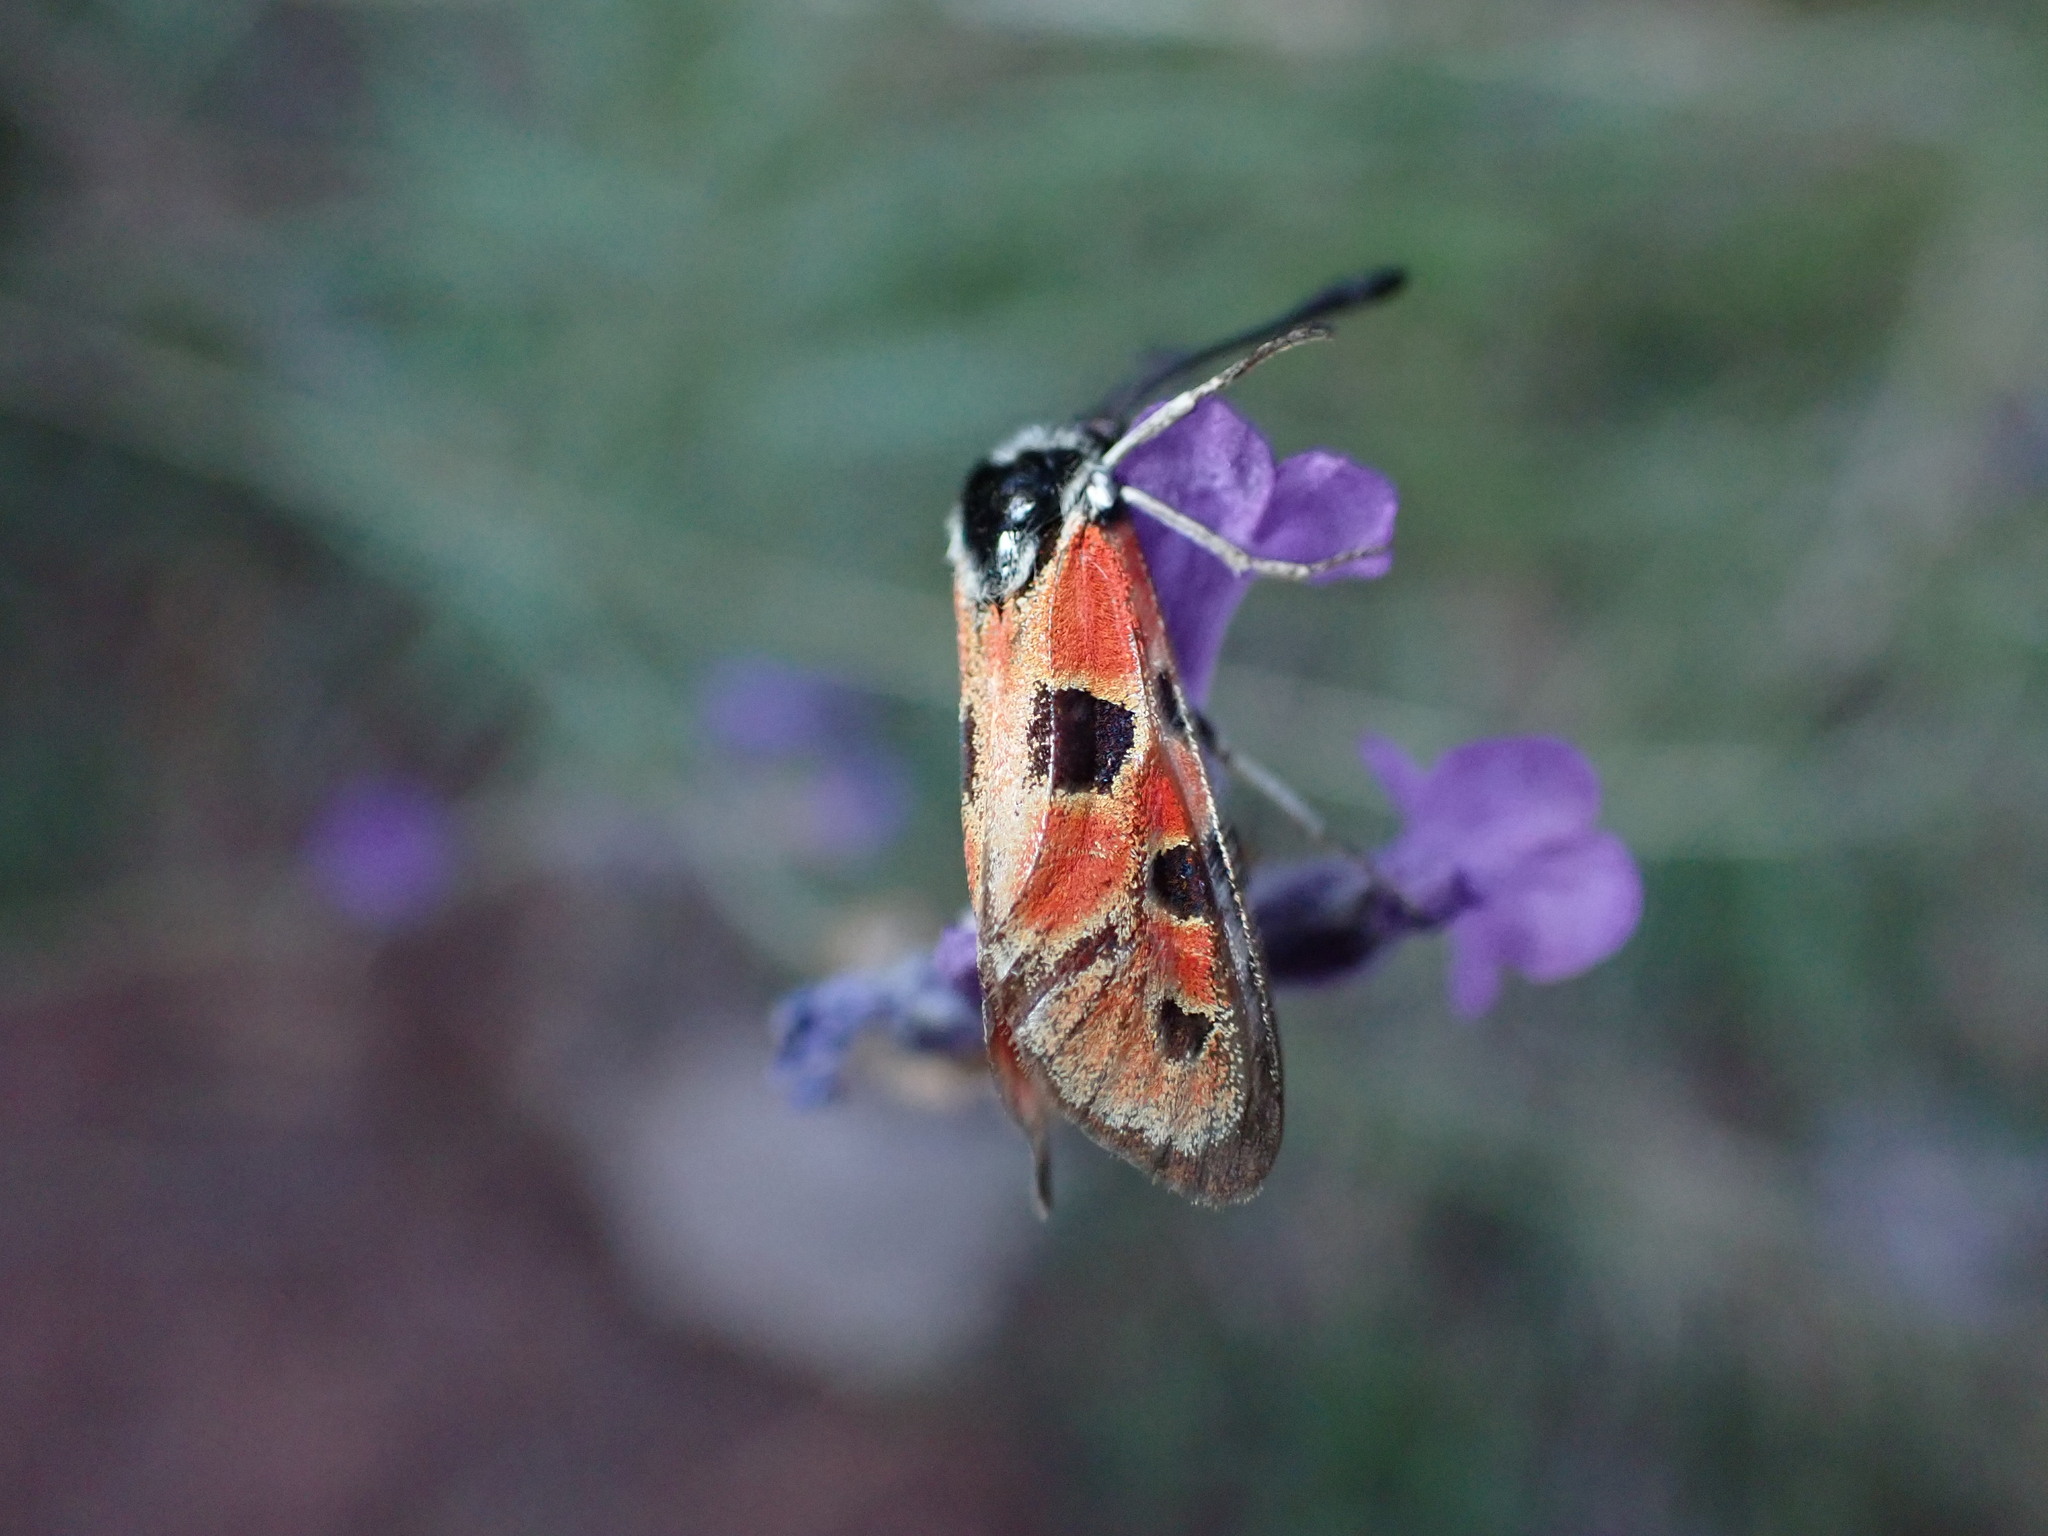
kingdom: Animalia
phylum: Arthropoda
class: Insecta
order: Lepidoptera
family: Zygaenidae
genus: Zygaena
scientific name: Zygaena hilaris
